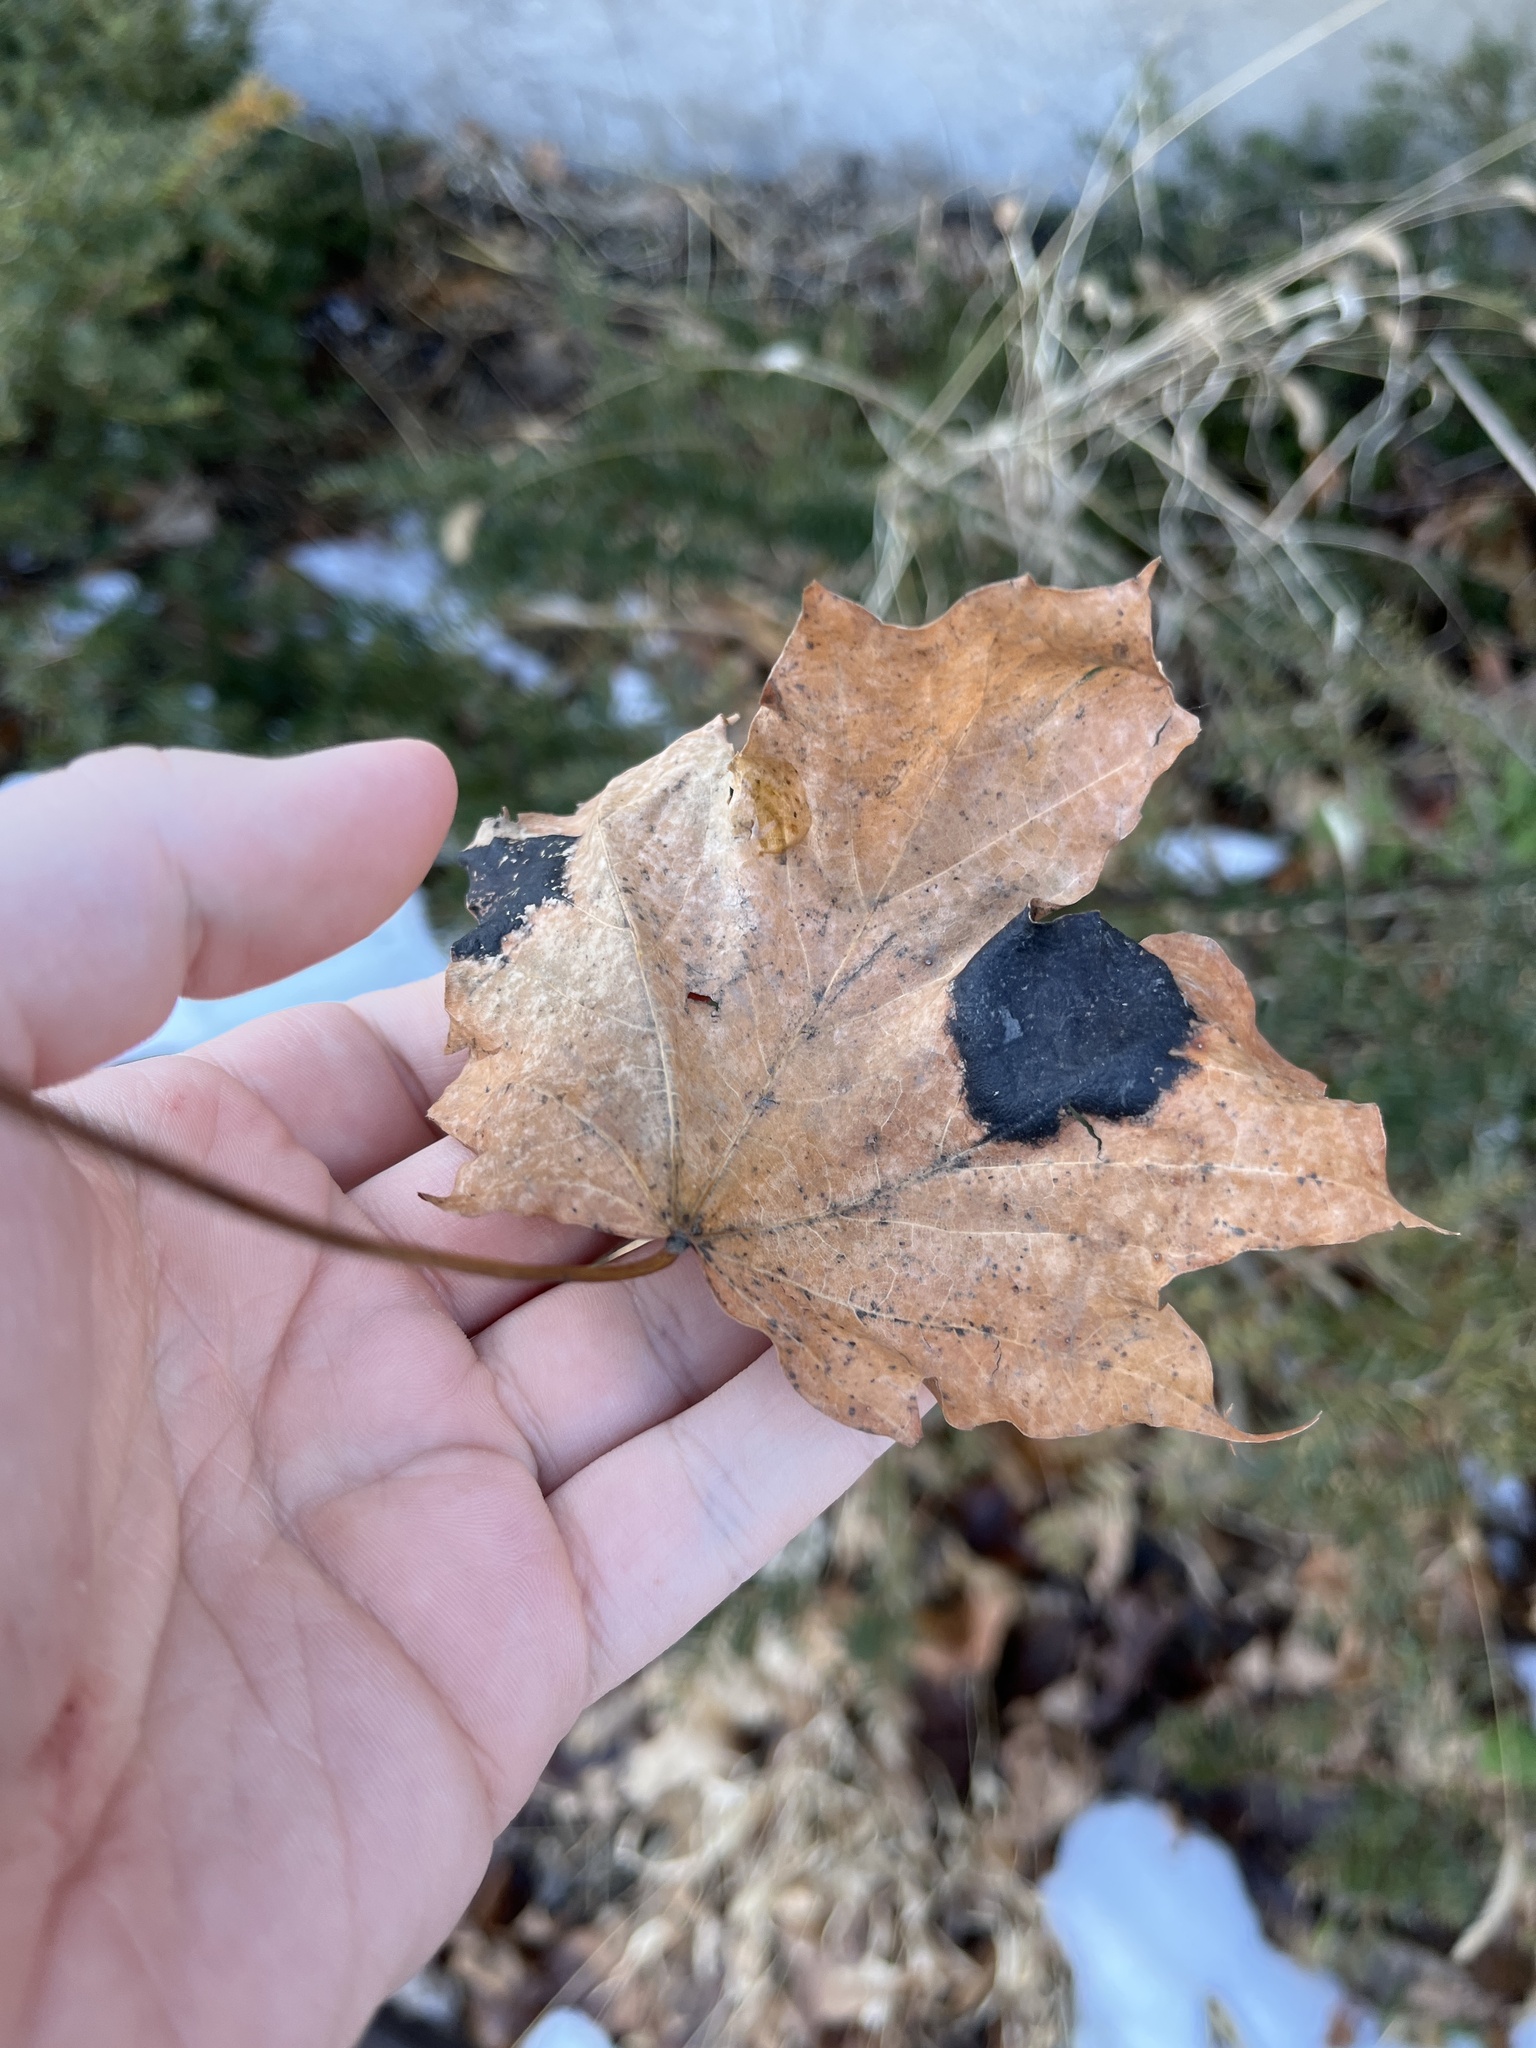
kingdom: Fungi
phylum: Ascomycota
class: Leotiomycetes
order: Rhytismatales
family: Rhytismataceae
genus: Rhytisma
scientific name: Rhytisma acerinum
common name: European tar spot
